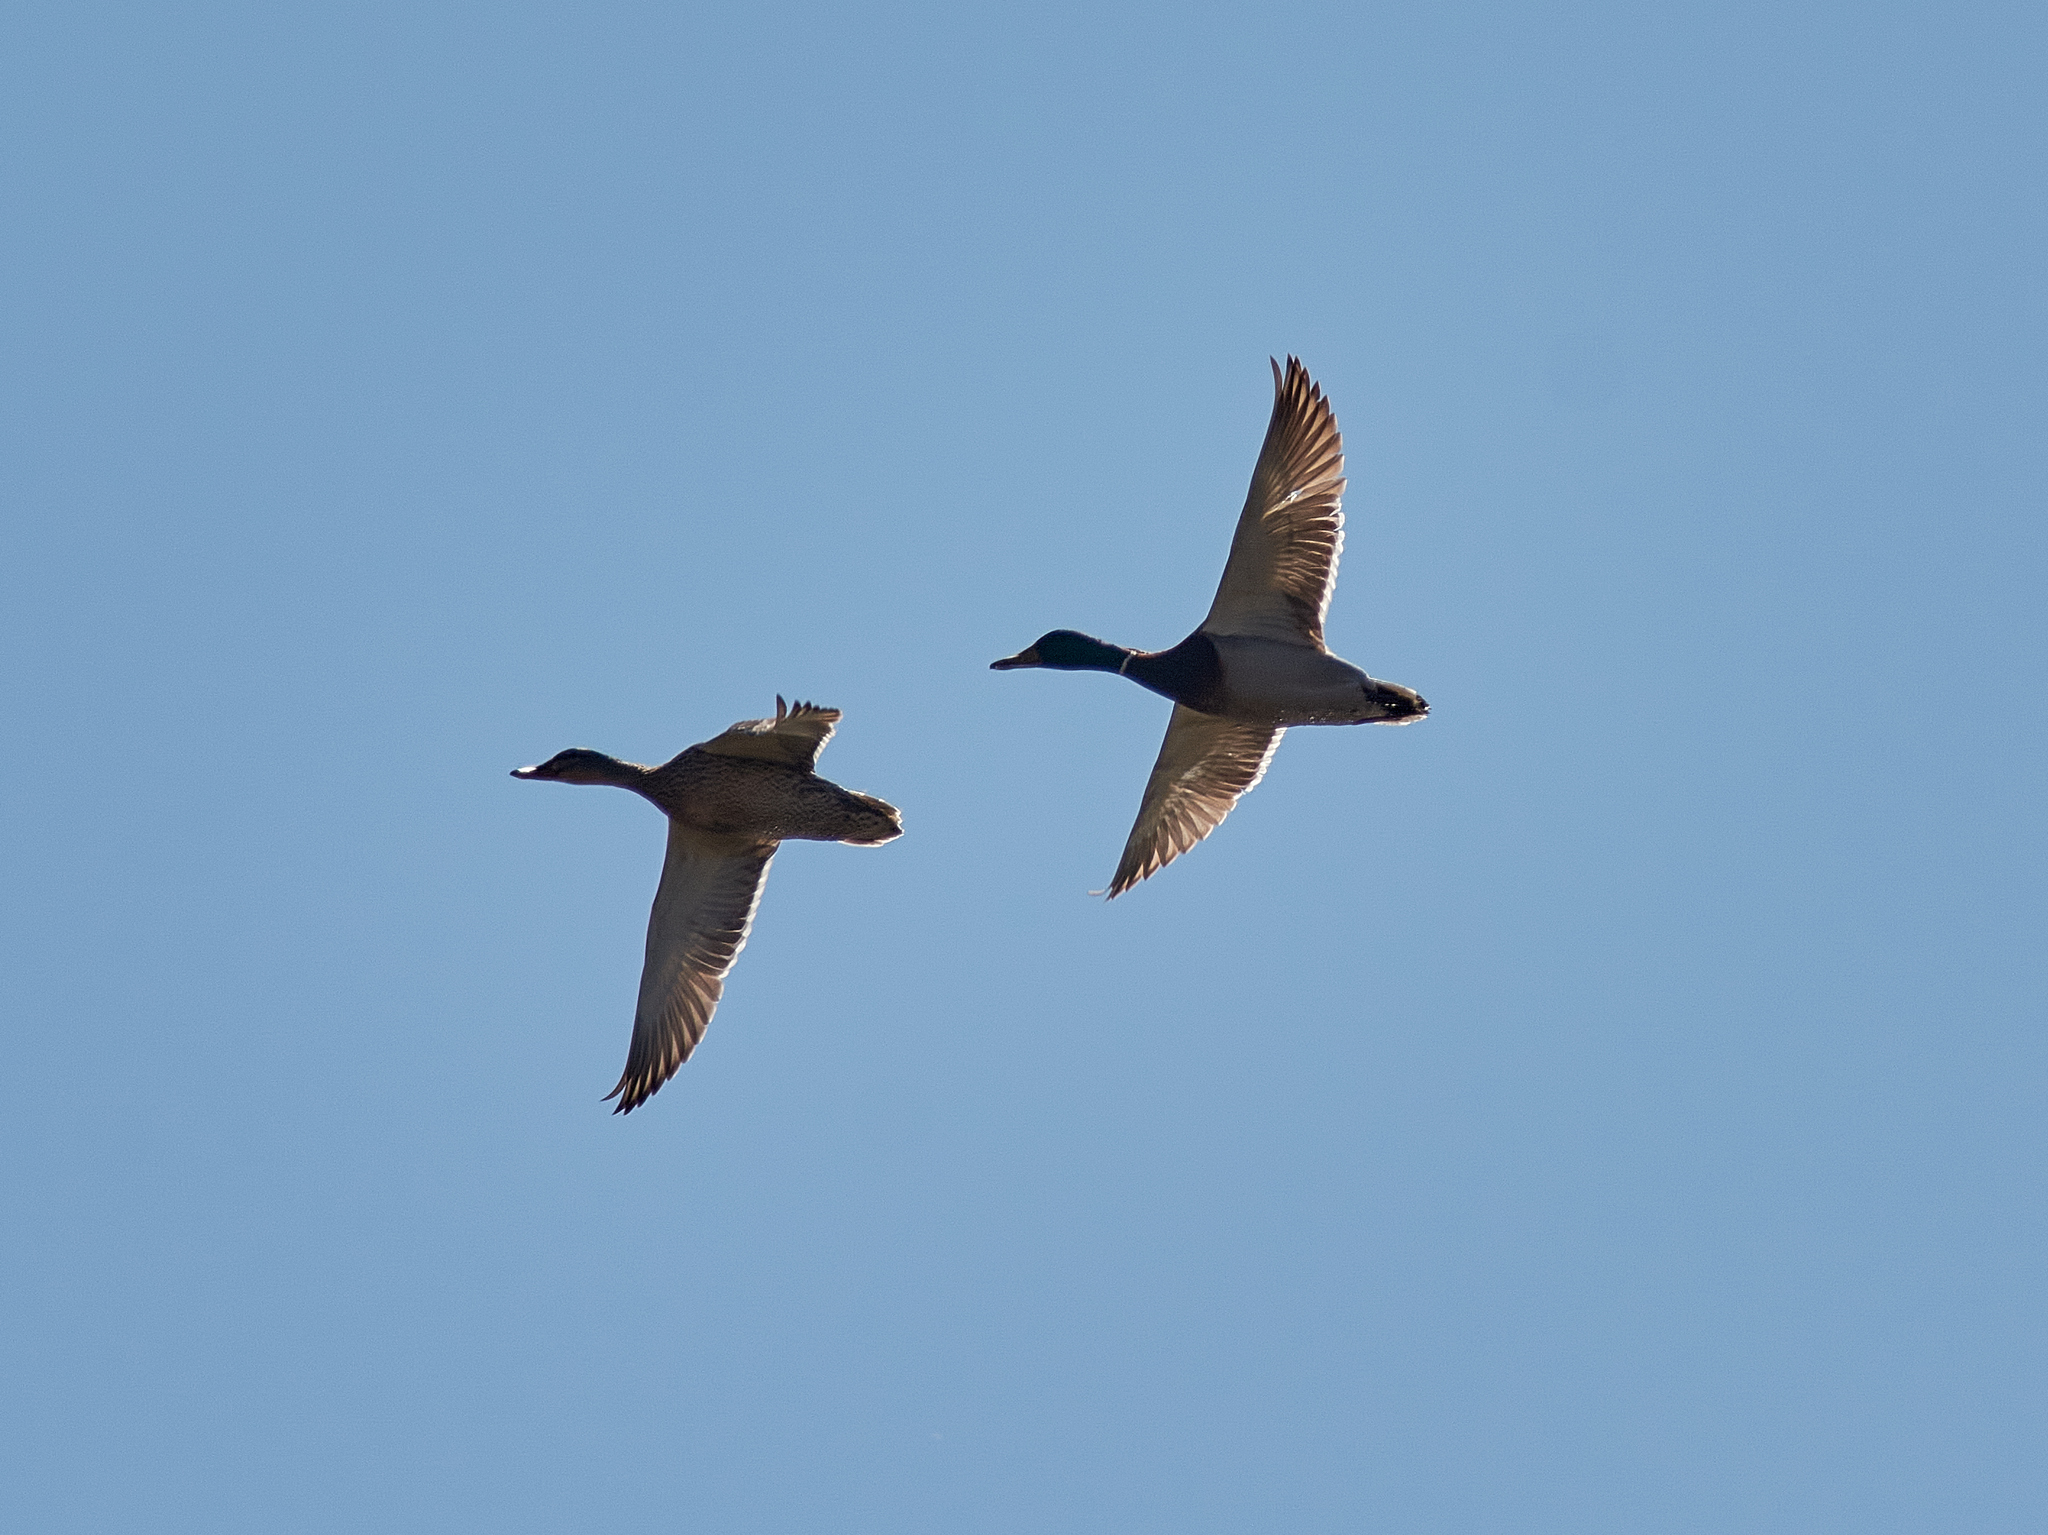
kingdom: Animalia
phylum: Chordata
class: Aves
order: Anseriformes
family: Anatidae
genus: Anas
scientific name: Anas platyrhynchos
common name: Mallard
